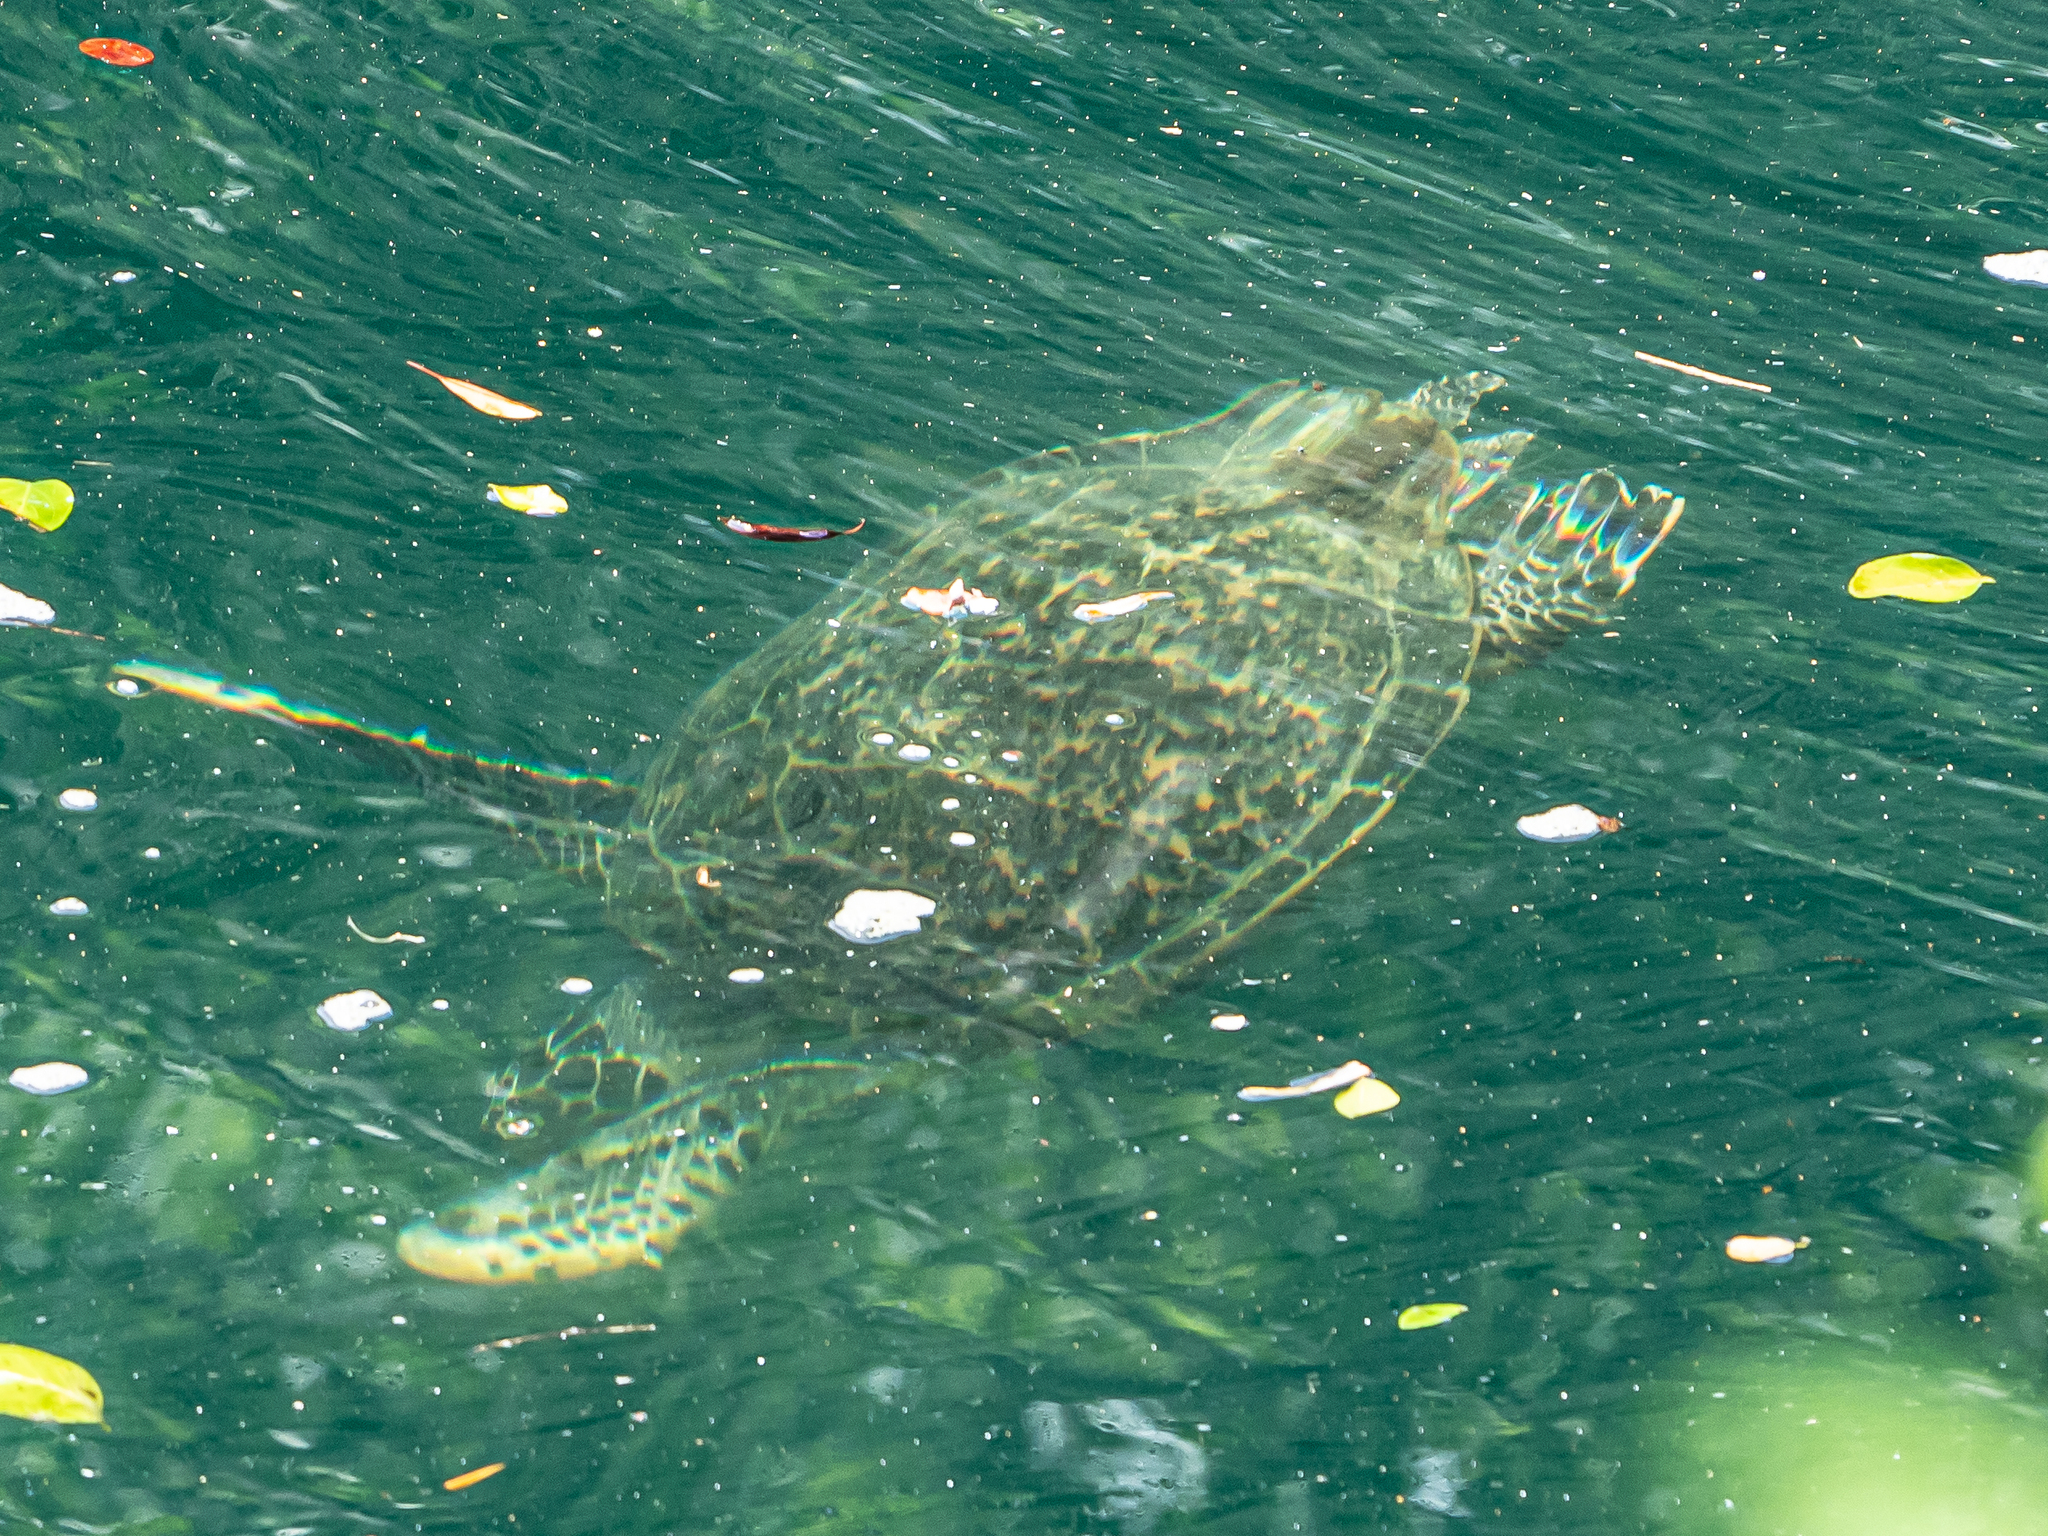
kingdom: Animalia
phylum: Chordata
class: Testudines
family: Cheloniidae
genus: Chelonia
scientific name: Chelonia mydas
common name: Green turtle
